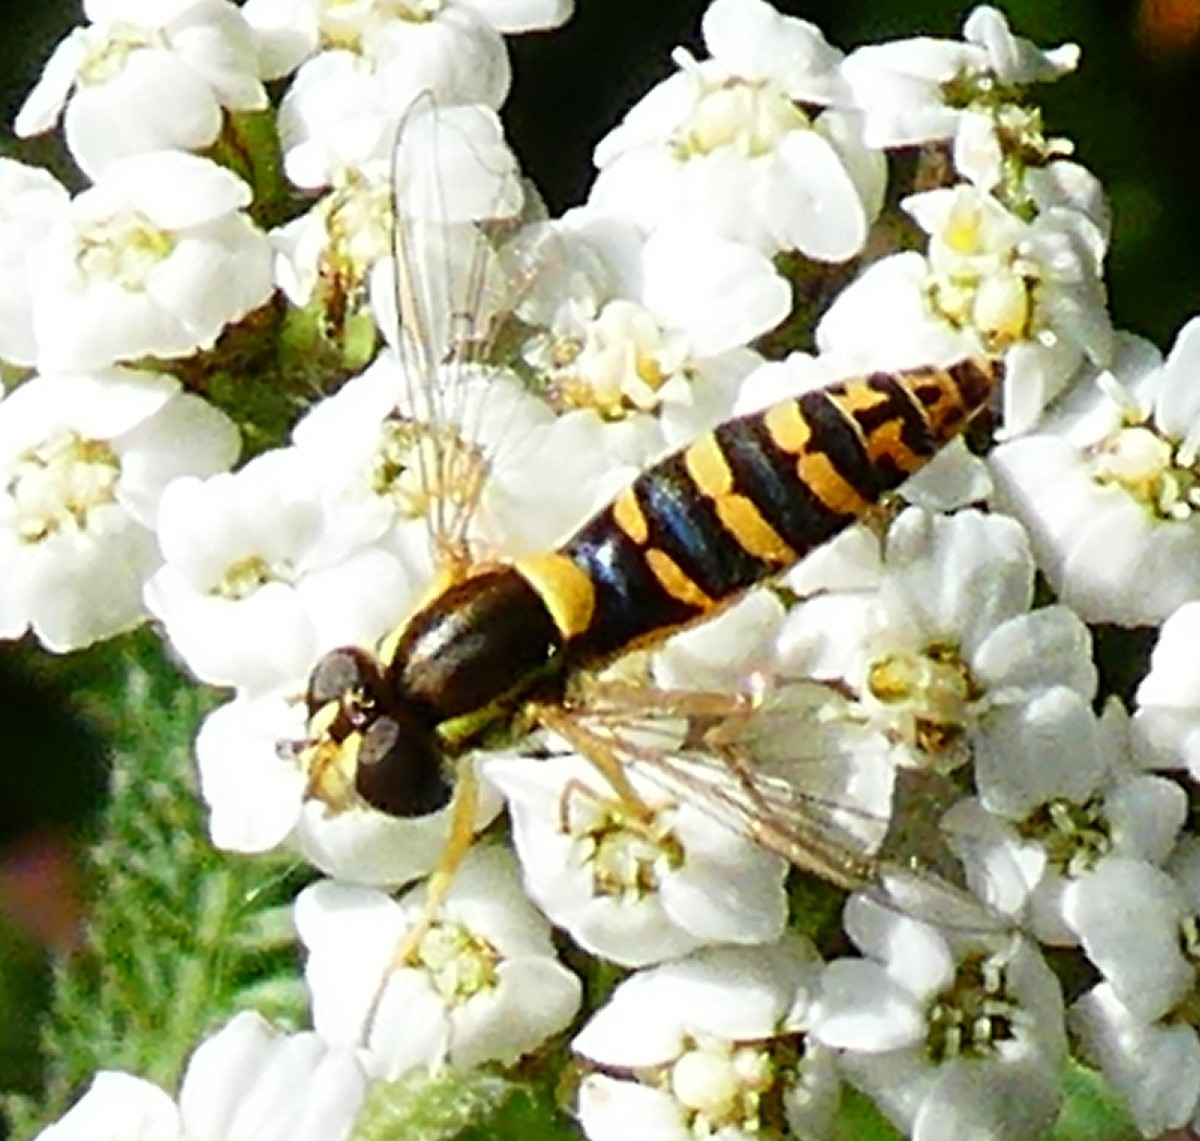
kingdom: Animalia
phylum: Arthropoda
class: Insecta
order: Diptera
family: Syrphidae
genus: Sphaerophoria
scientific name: Sphaerophoria
